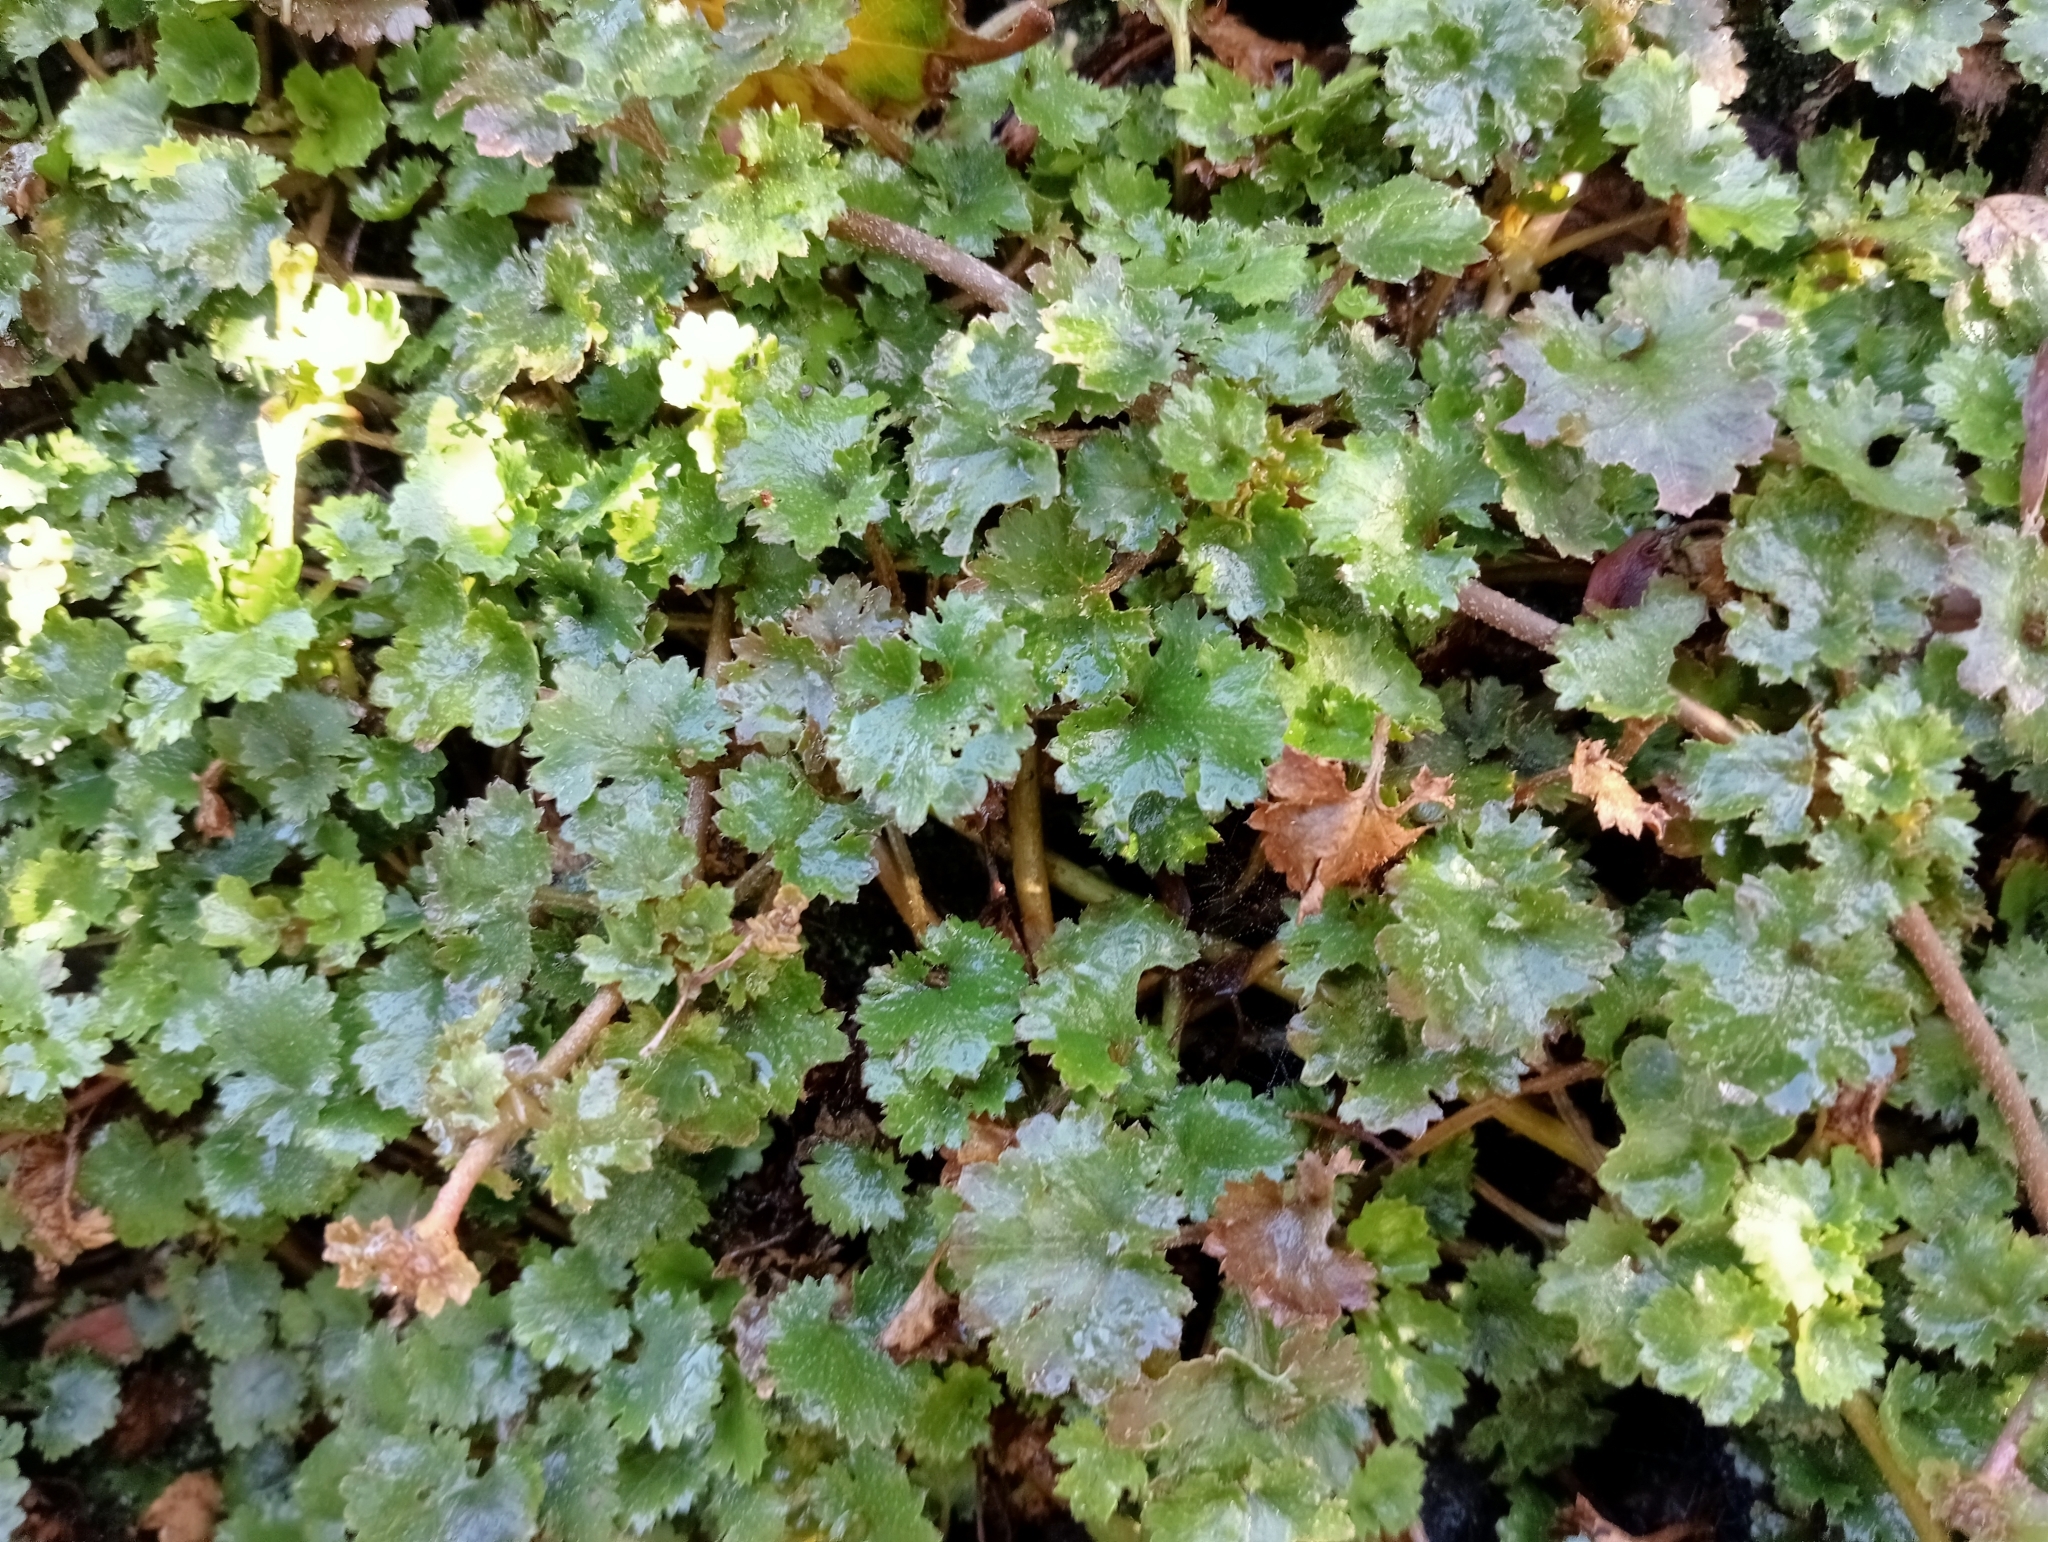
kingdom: Plantae
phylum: Tracheophyta
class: Magnoliopsida
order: Gunnerales
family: Gunneraceae
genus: Gunnera
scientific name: Gunnera monoica
